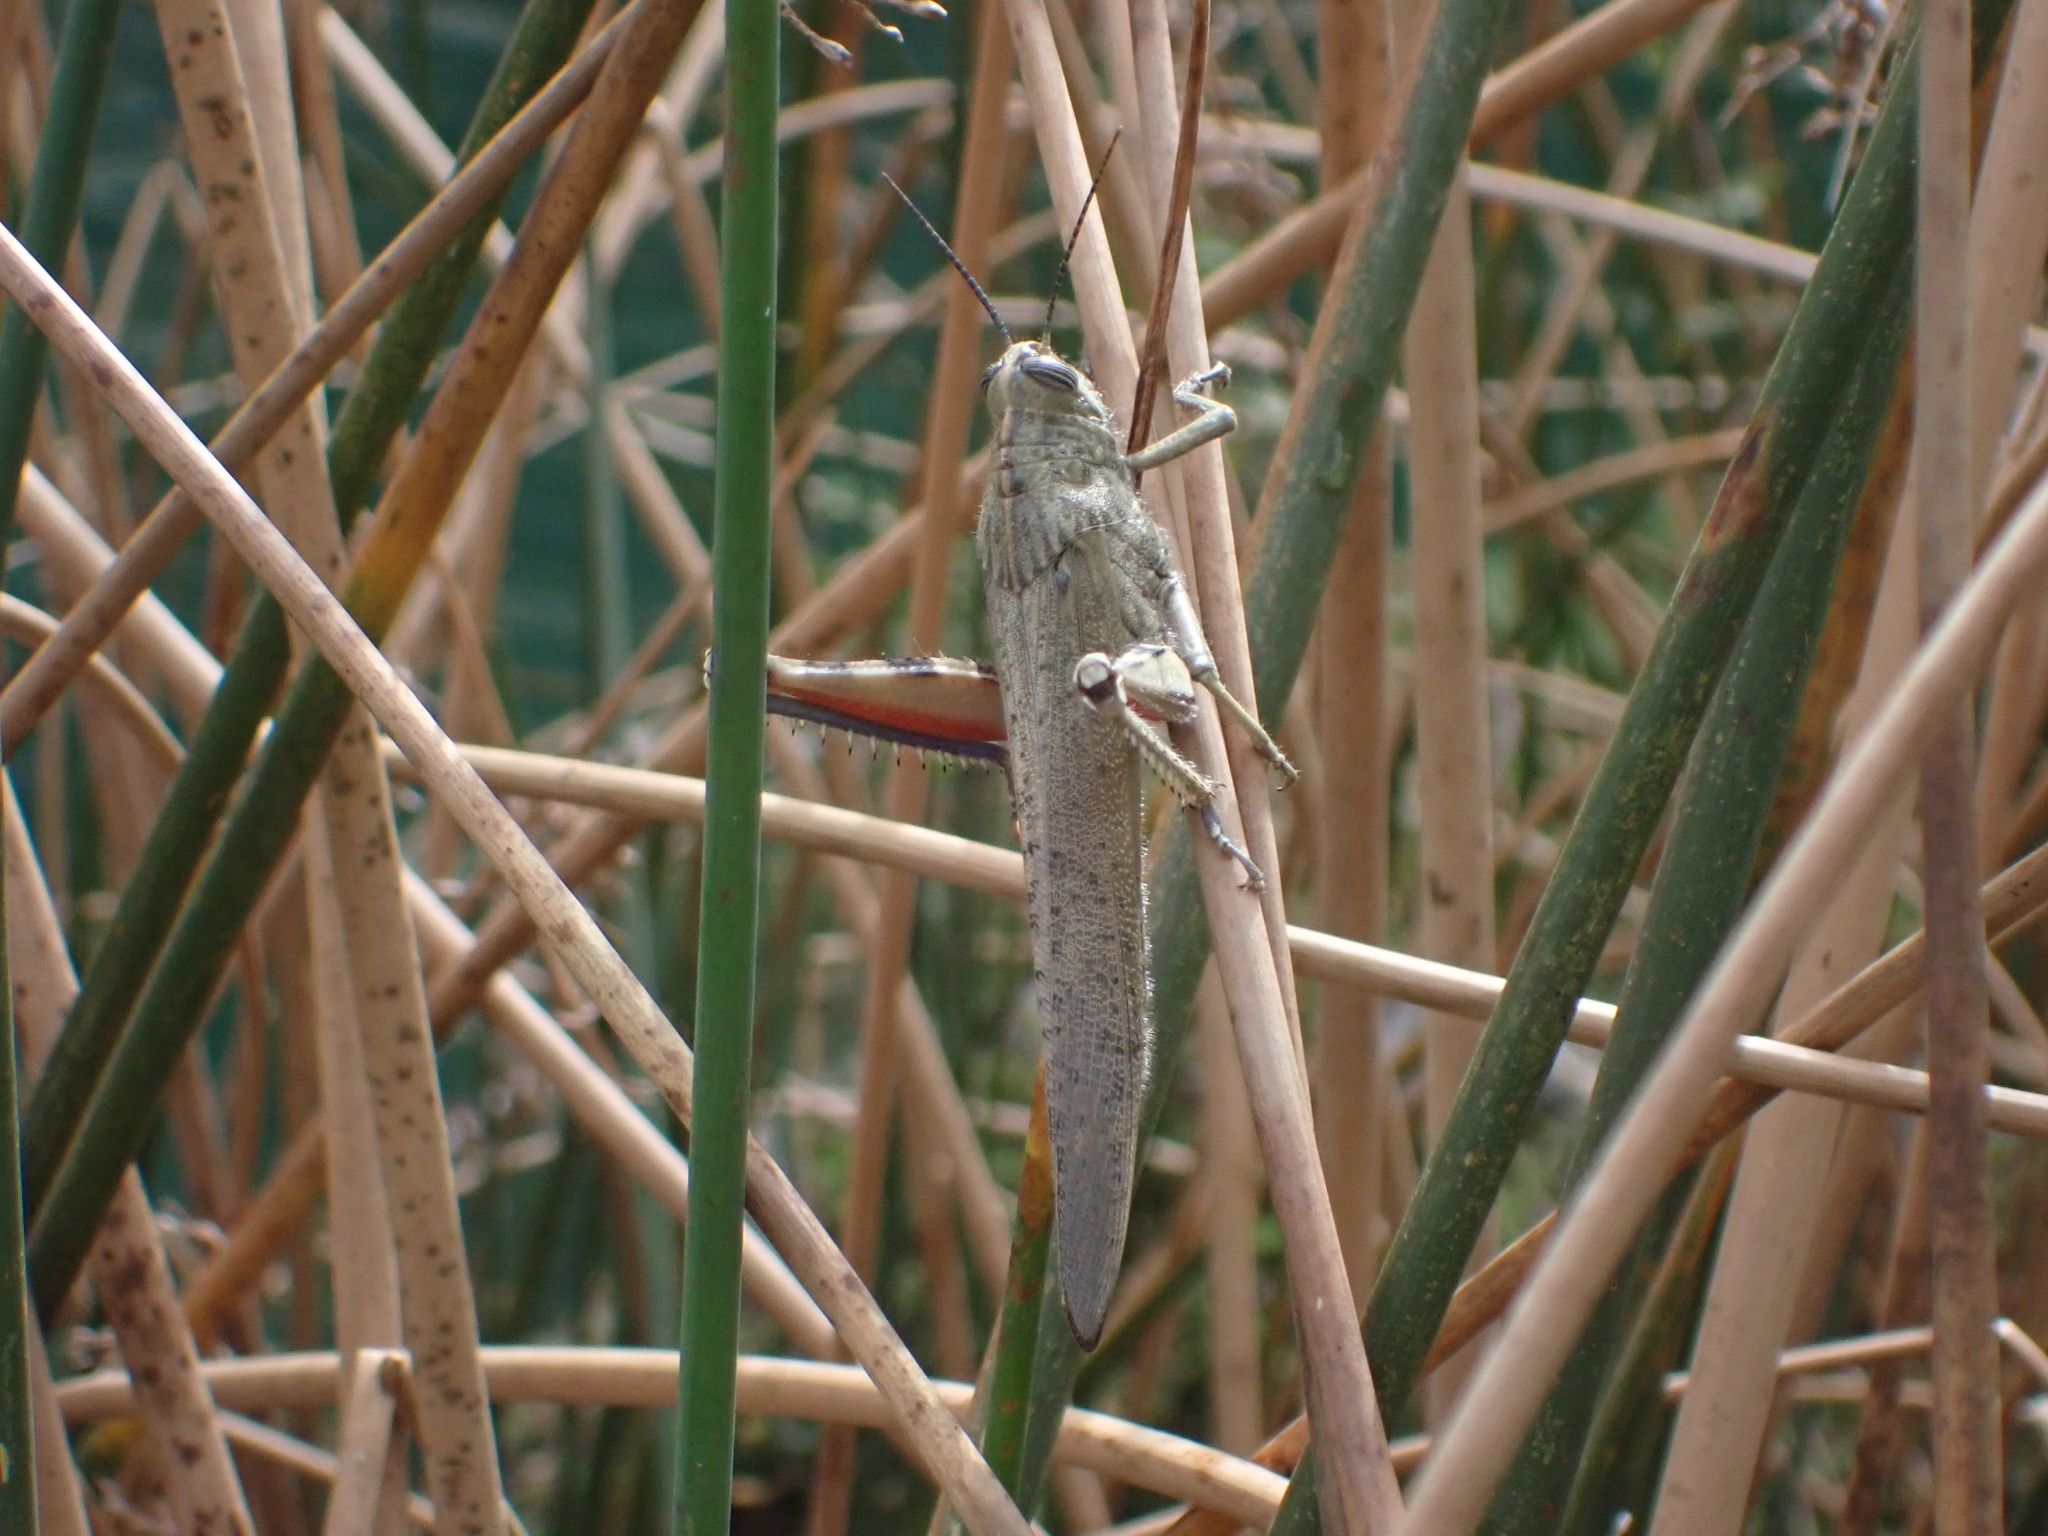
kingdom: Animalia
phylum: Arthropoda
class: Insecta
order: Orthoptera
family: Acrididae
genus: Anacridium
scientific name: Anacridium aegyptium
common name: Egyptian grasshopper
